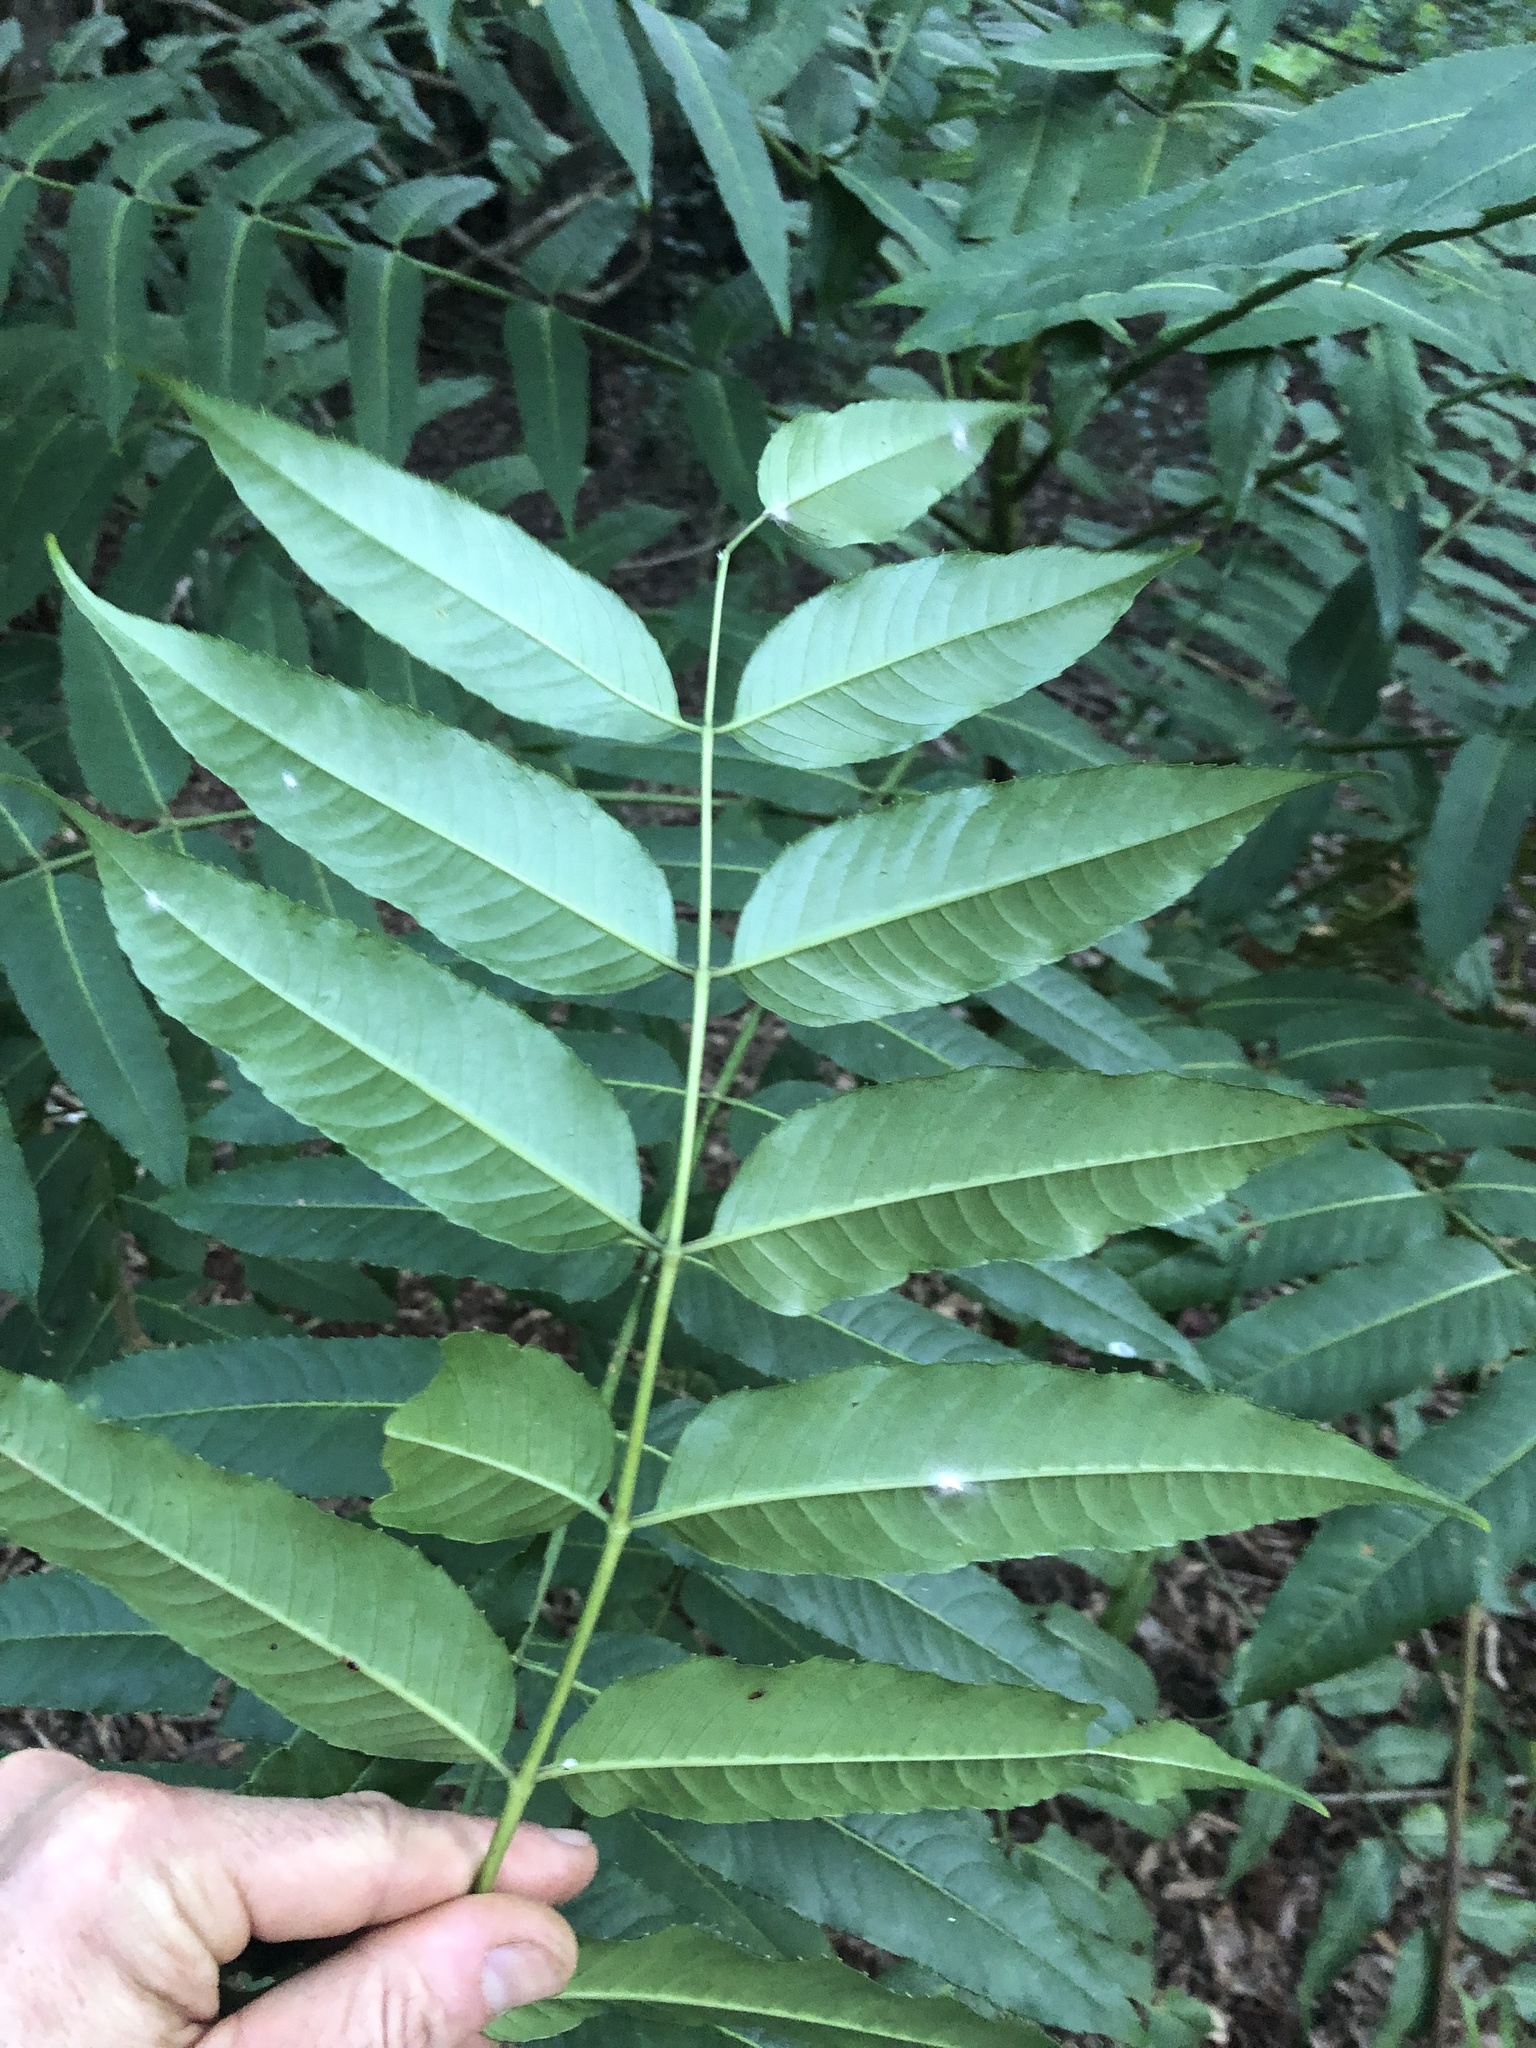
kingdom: Plantae
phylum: Tracheophyta
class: Magnoliopsida
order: Apiales
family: Araliaceae
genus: Polyscias
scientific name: Polyscias murrayi
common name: Pencil cedar
